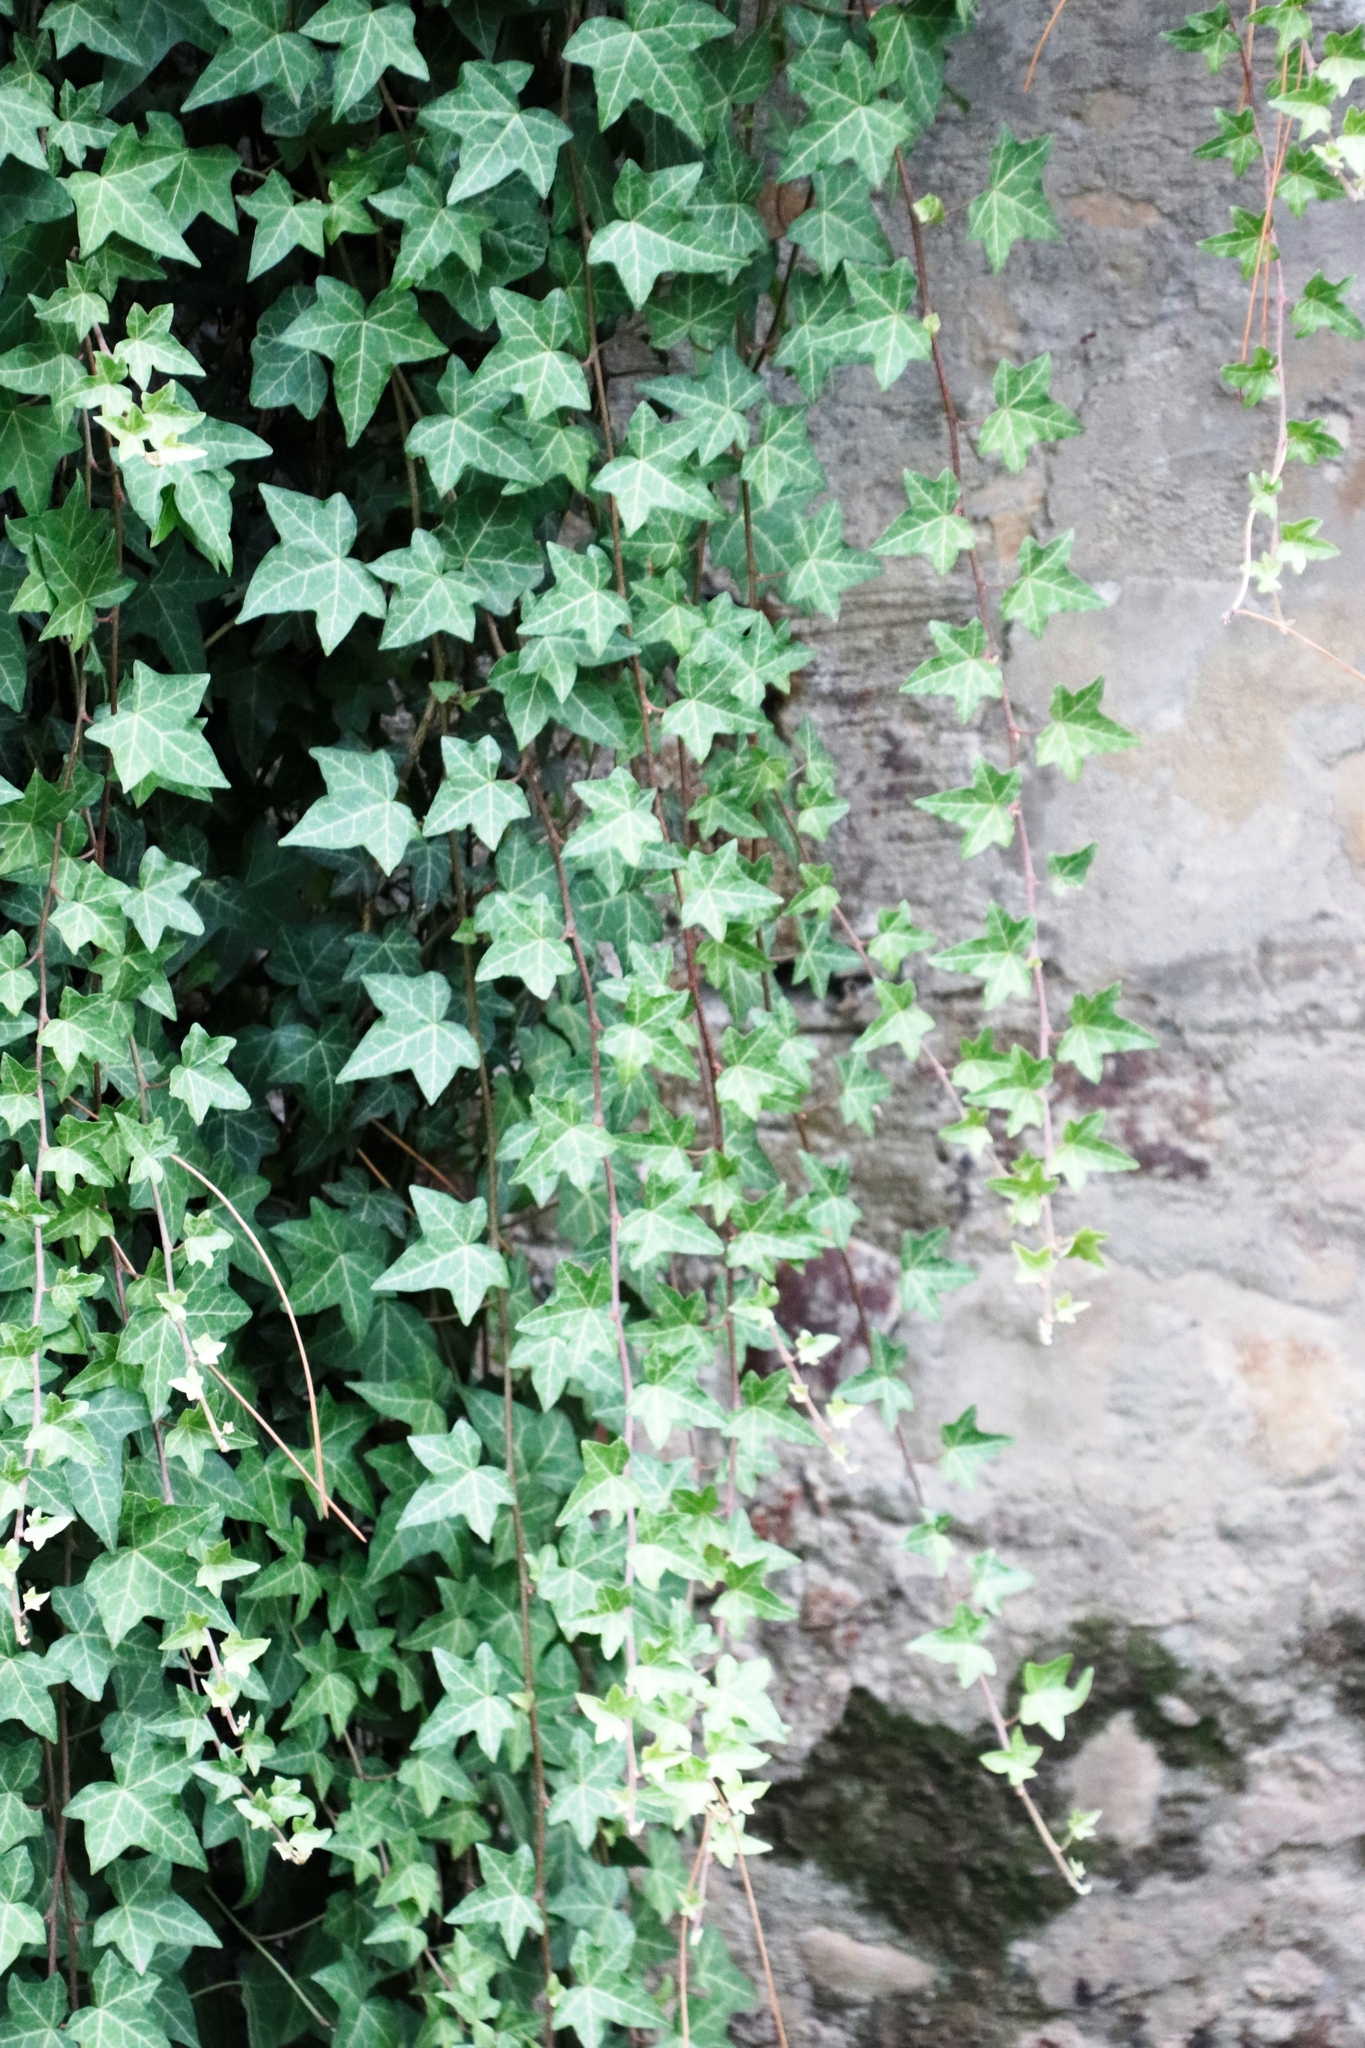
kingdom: Plantae
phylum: Tracheophyta
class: Magnoliopsida
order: Apiales
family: Araliaceae
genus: Hedera
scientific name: Hedera helix
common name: Ivy
